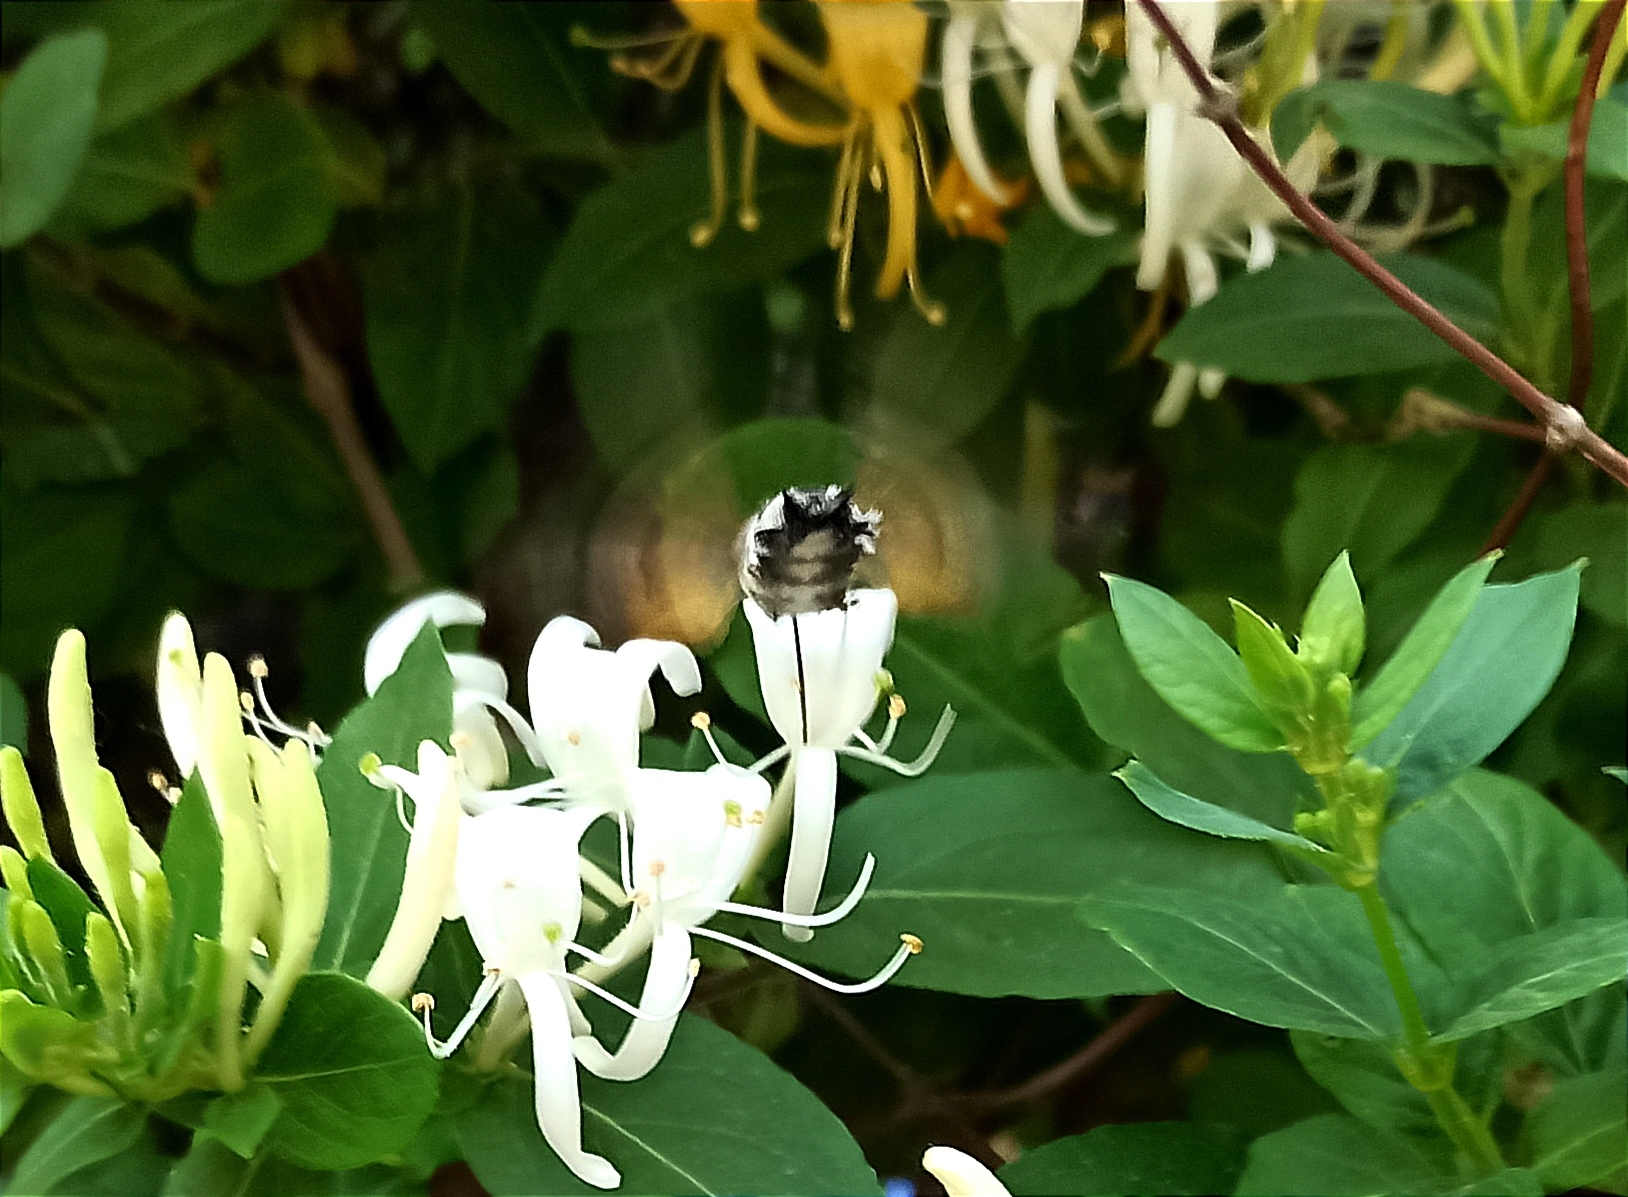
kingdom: Animalia
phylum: Arthropoda
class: Insecta
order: Lepidoptera
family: Sphingidae
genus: Macroglossum
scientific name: Macroglossum stellatarum
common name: Humming-bird hawk-moth
